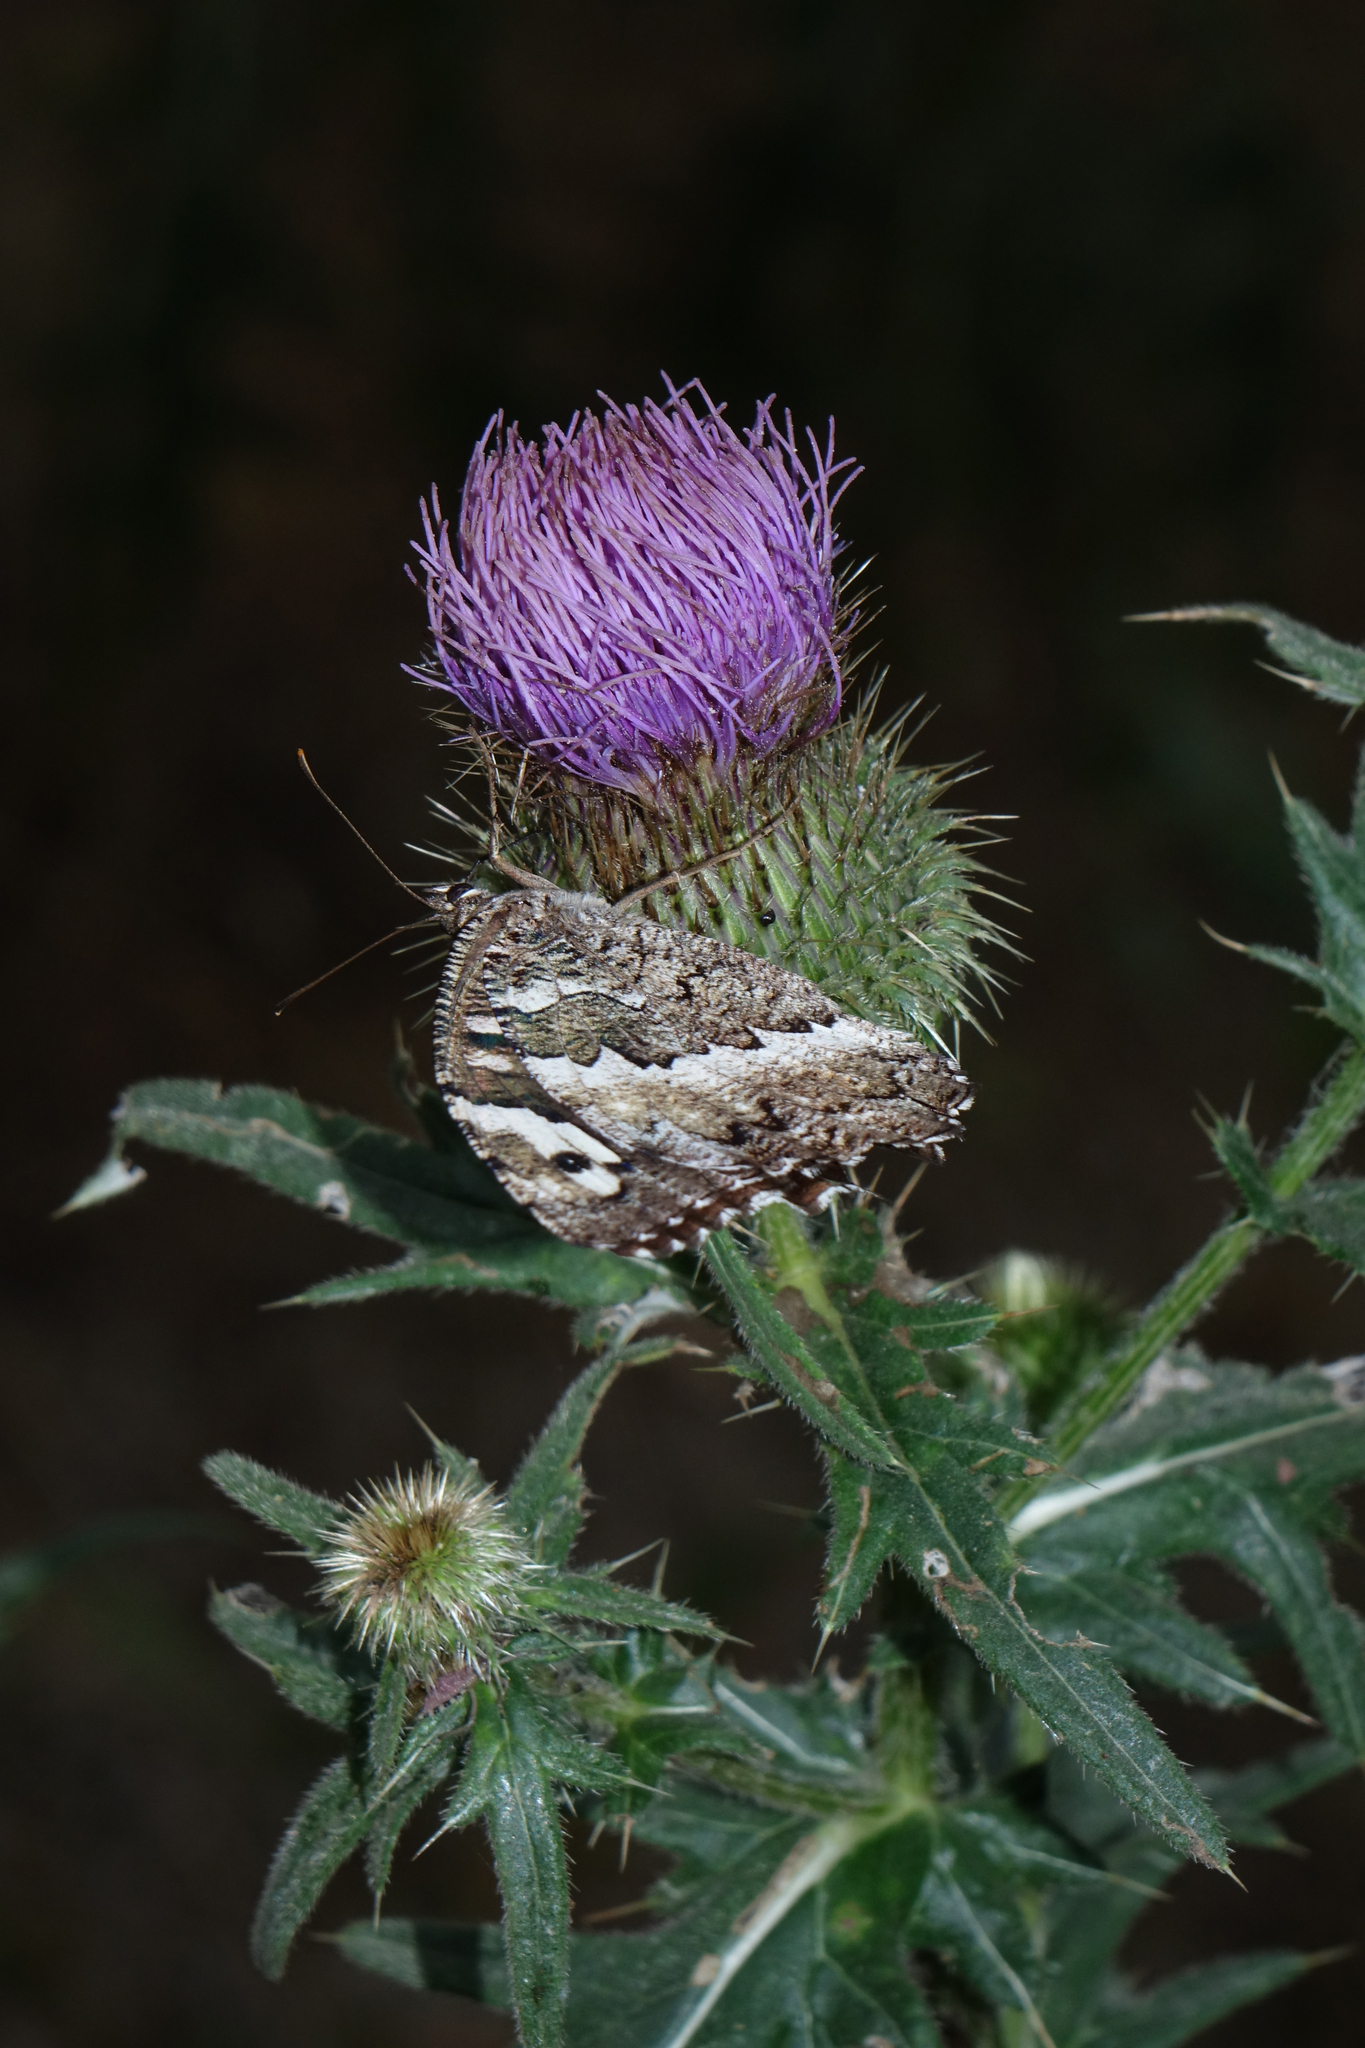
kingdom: Animalia
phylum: Arthropoda
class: Insecta
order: Lepidoptera
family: Lycaenidae
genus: Loweia
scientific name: Loweia tityrus
